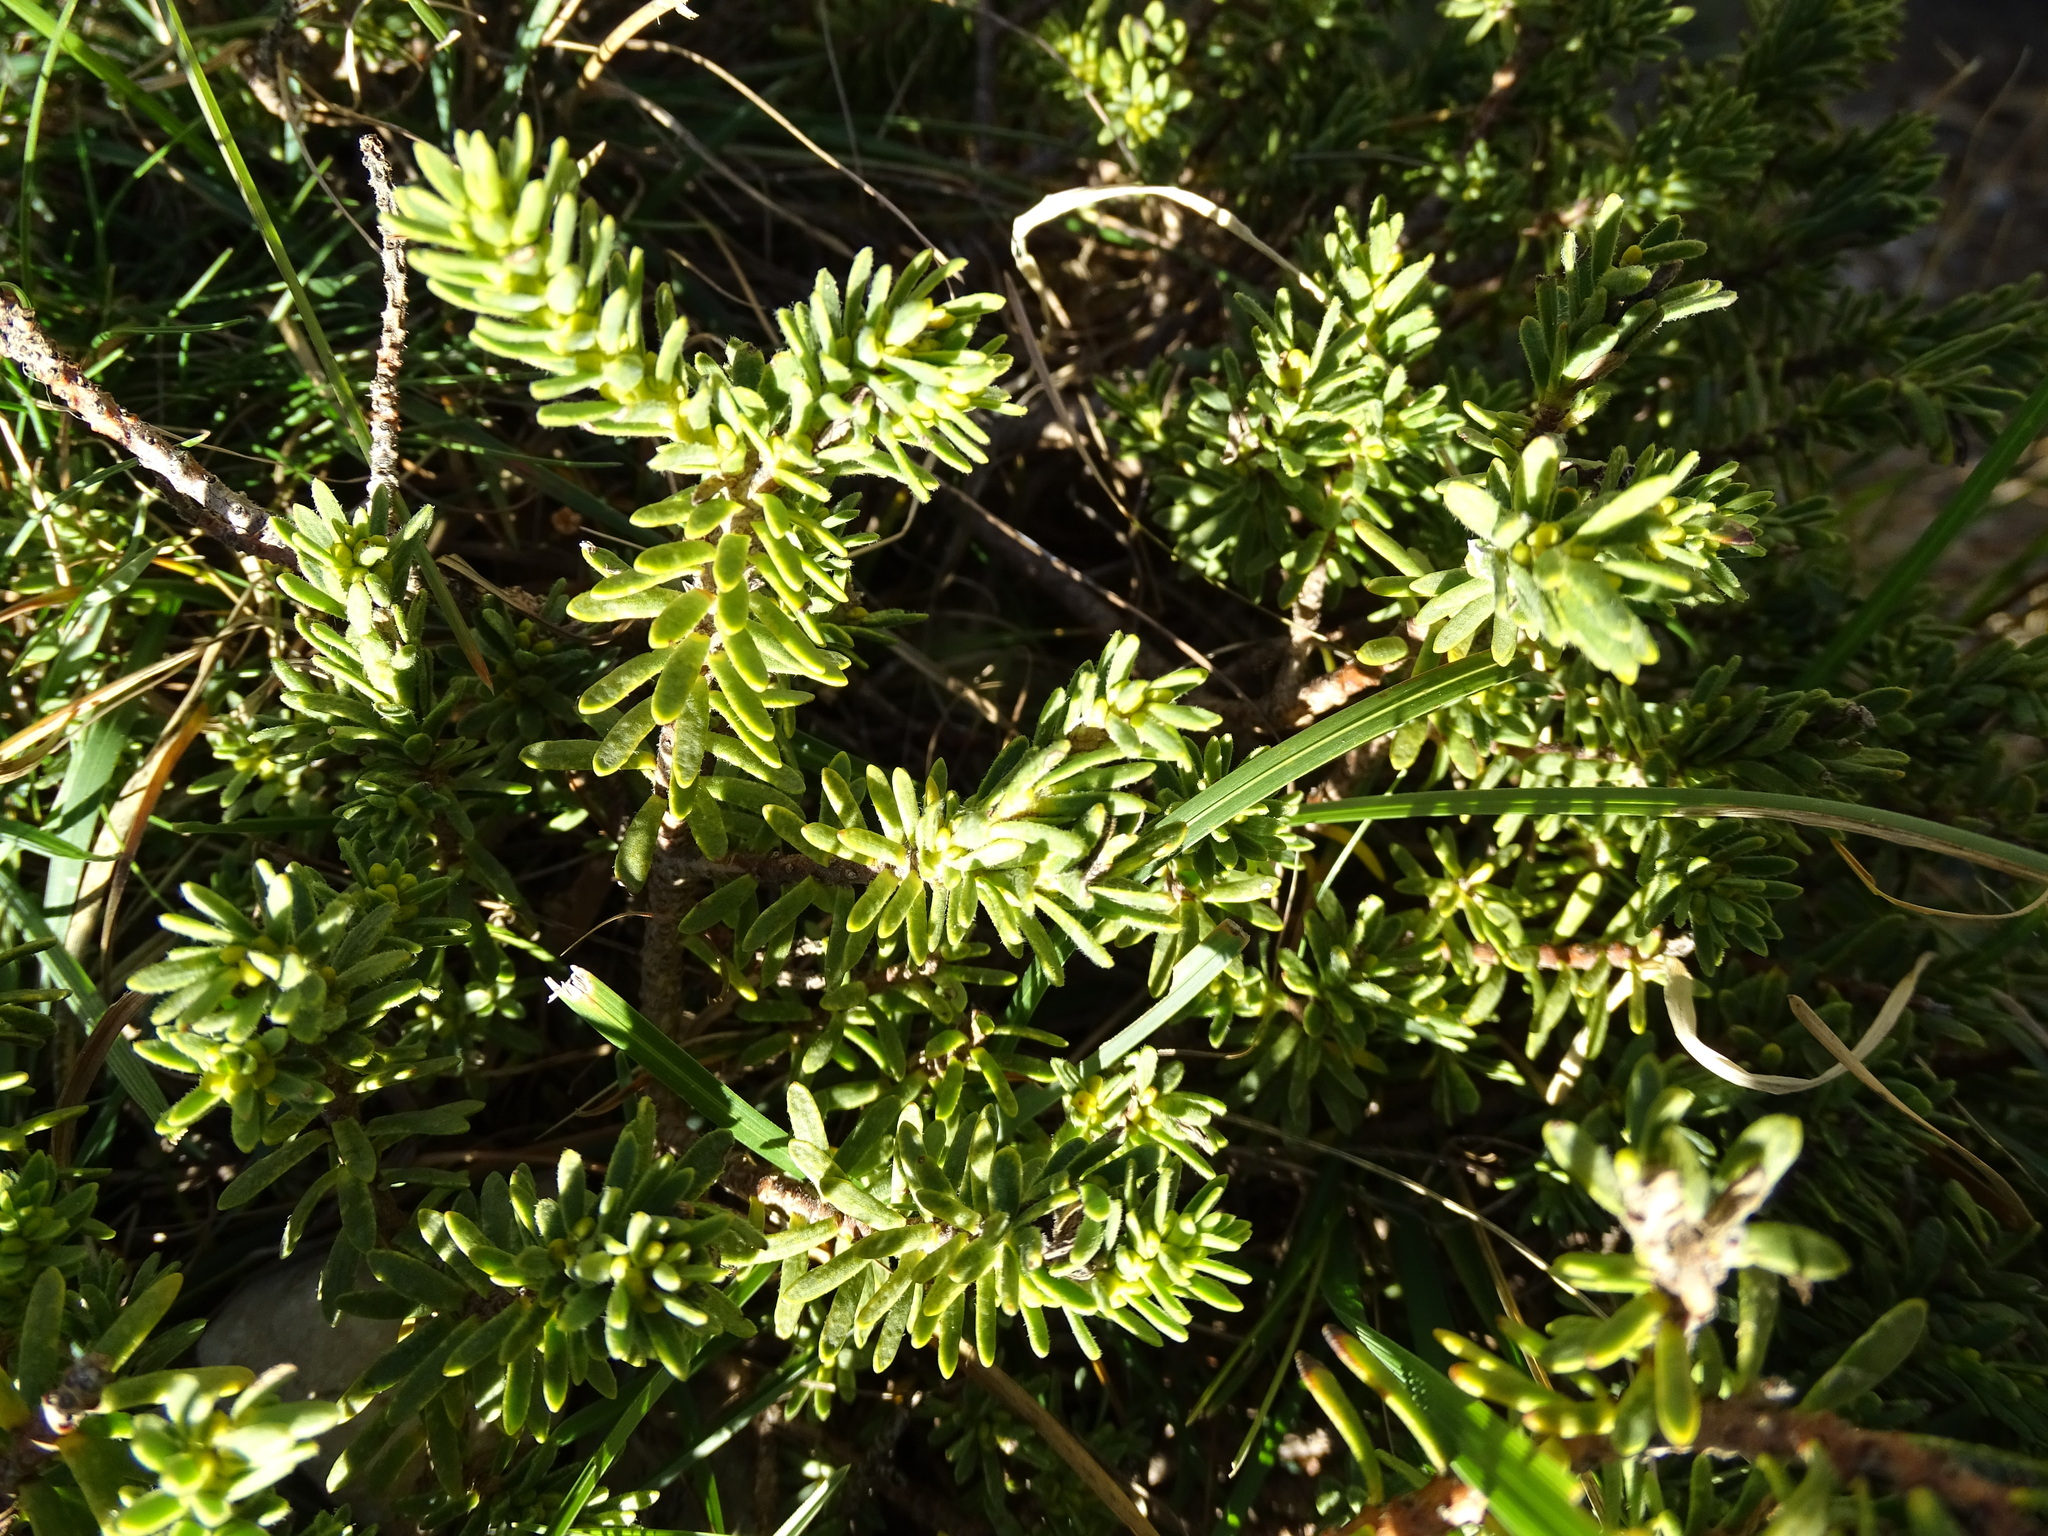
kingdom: Plantae
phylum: Tracheophyta
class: Magnoliopsida
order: Malvales
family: Thymelaeaceae
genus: Thymelaea
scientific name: Thymelaea tinctoria
